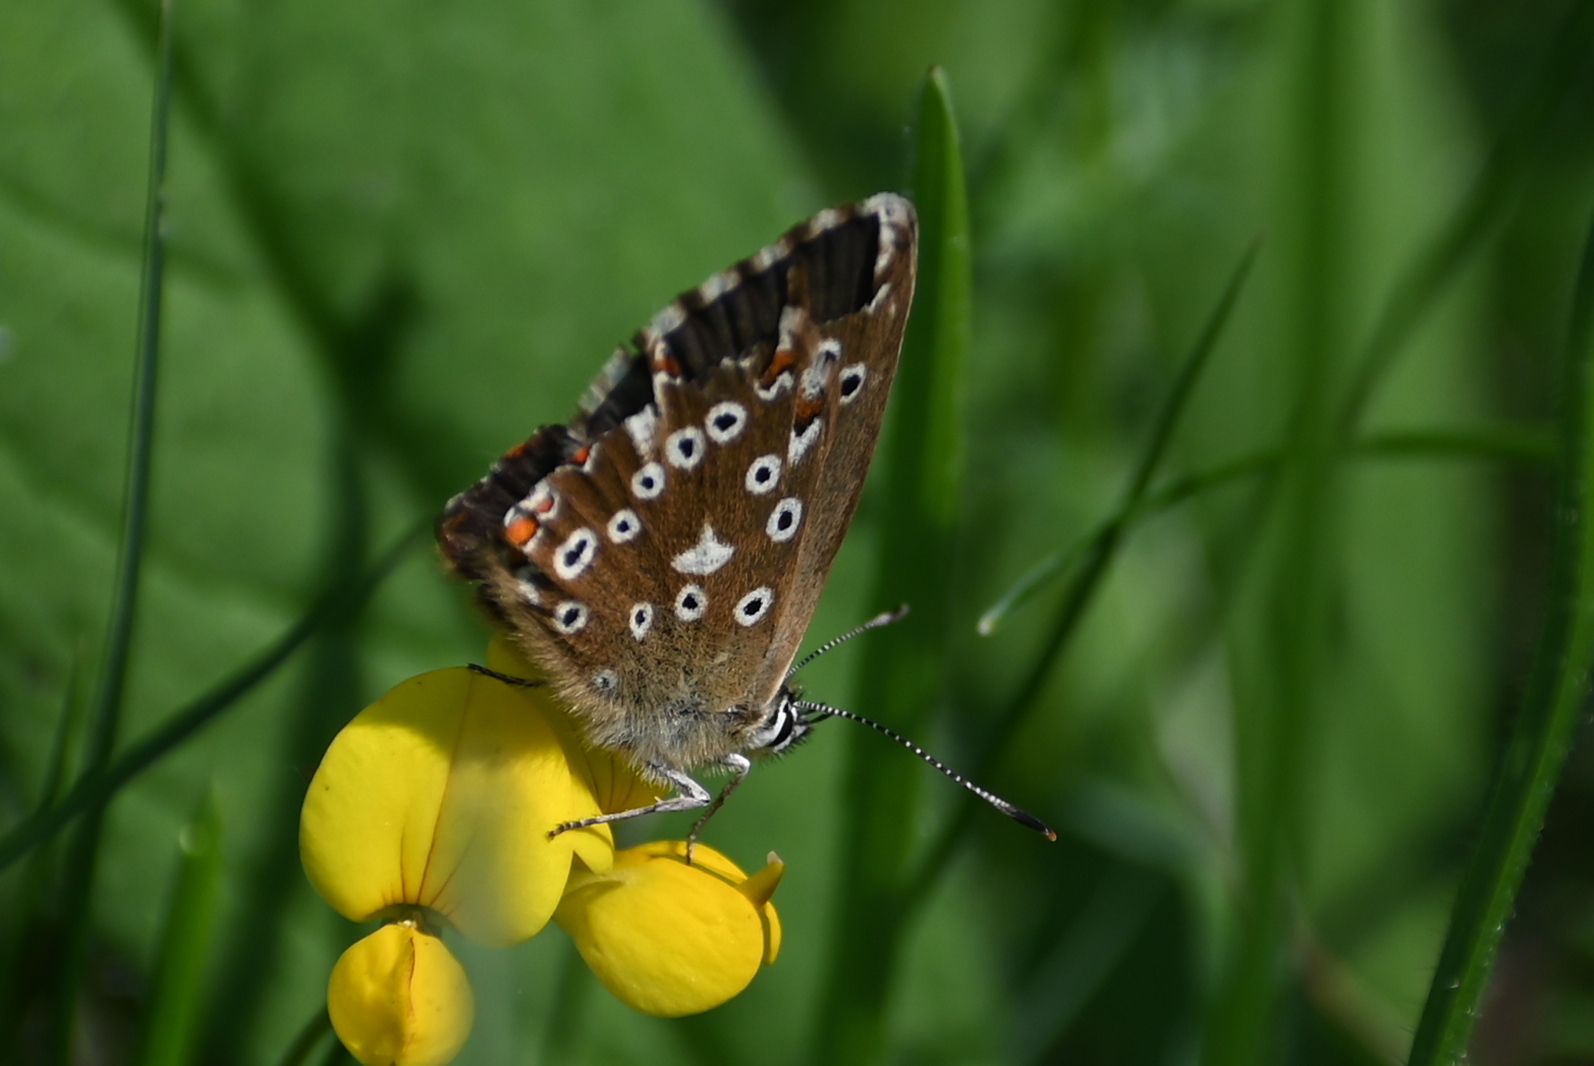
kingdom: Animalia
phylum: Arthropoda
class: Insecta
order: Lepidoptera
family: Lycaenidae
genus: Lysandra
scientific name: Lysandra coridon
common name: Chalkhill blue
